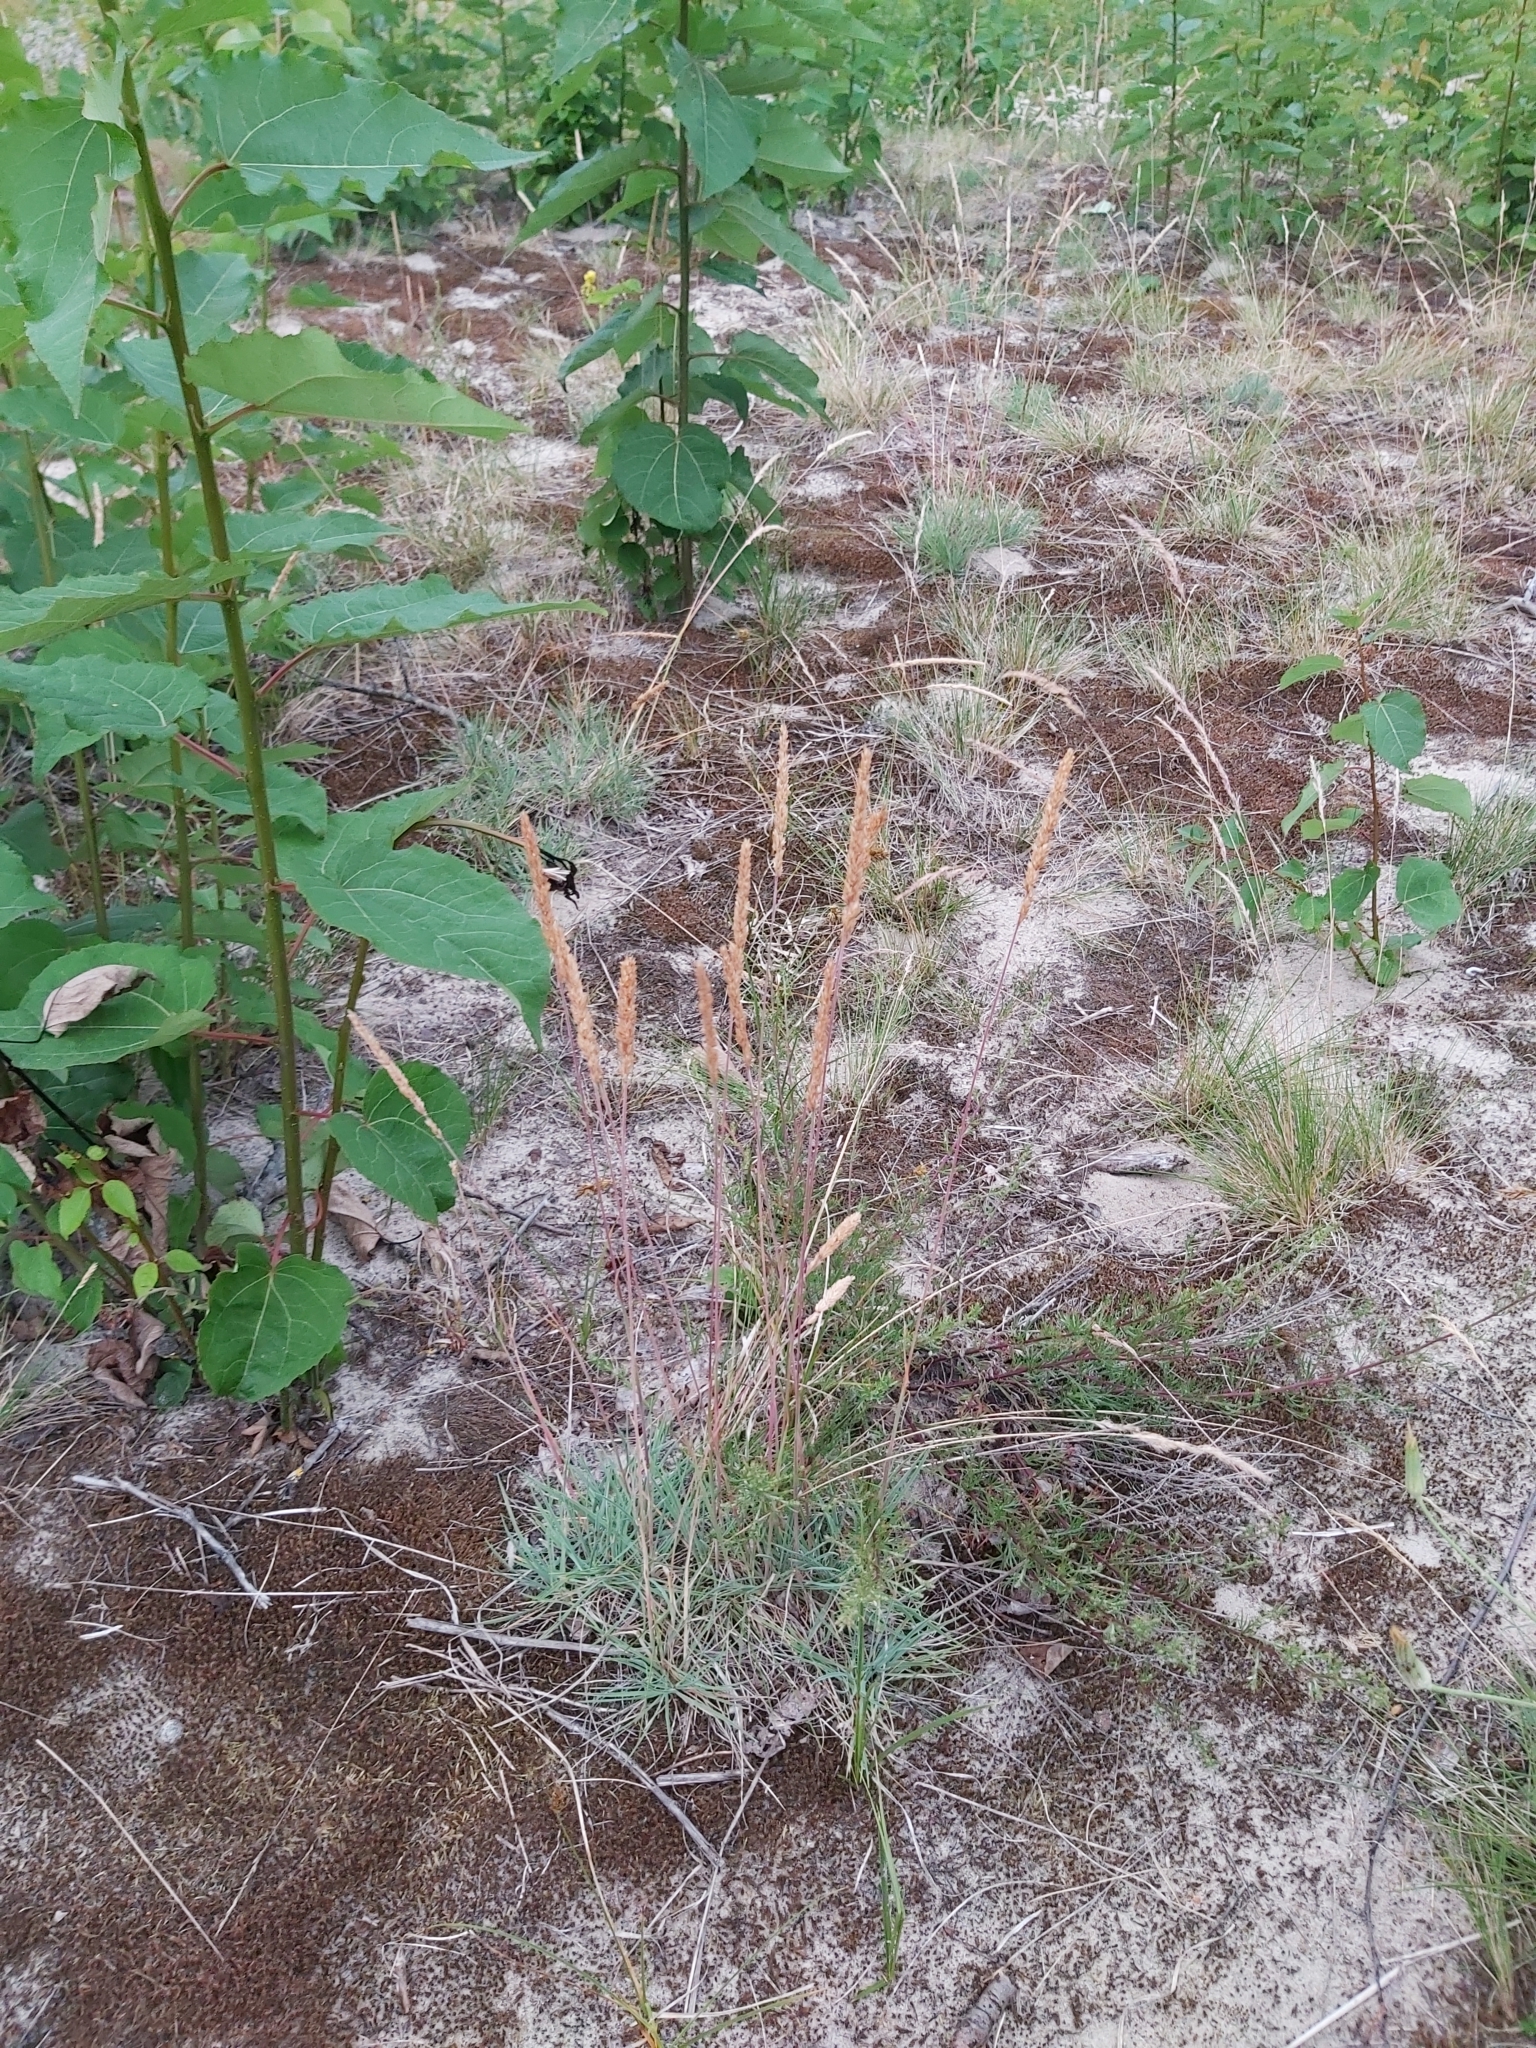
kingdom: Plantae
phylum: Tracheophyta
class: Liliopsida
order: Poales
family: Poaceae
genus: Koeleria
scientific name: Koeleria glauca
